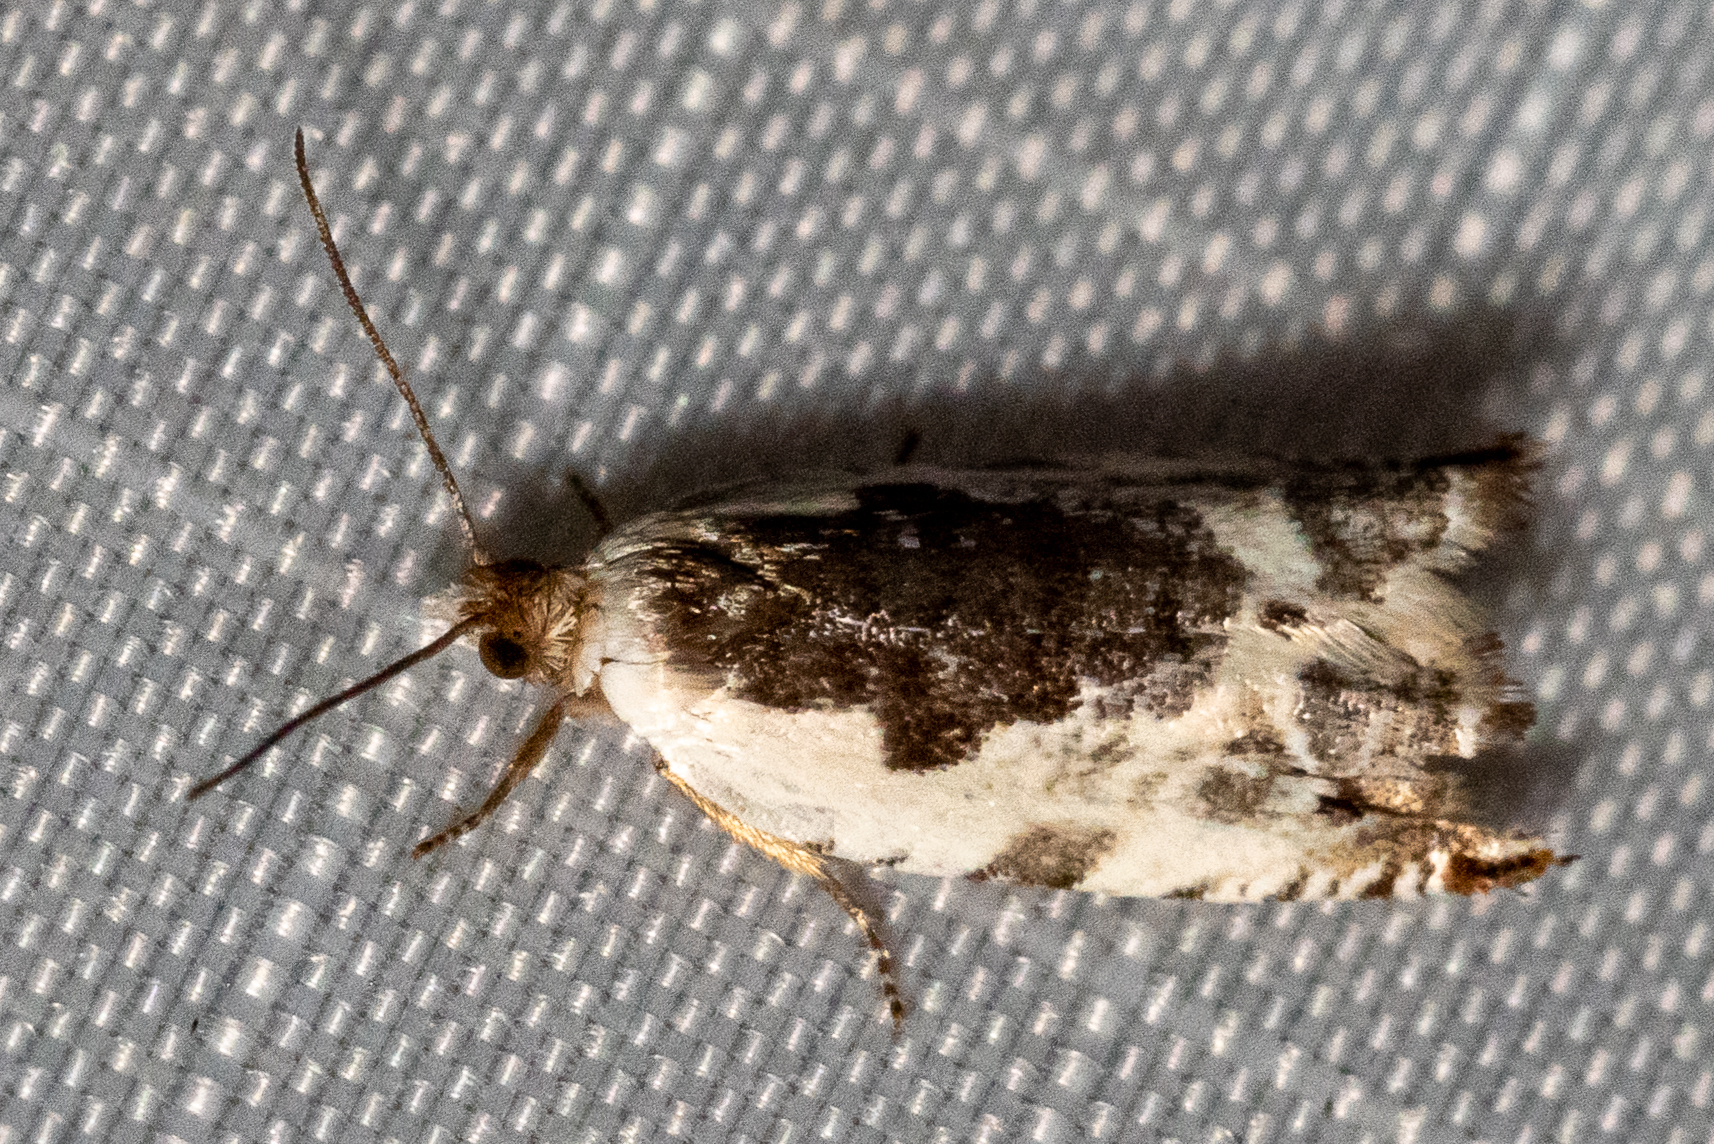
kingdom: Animalia
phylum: Arthropoda
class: Insecta
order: Lepidoptera
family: Tortricidae
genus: Ancylis
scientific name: Ancylis nubeculana
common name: Little cloud ancylis moth
